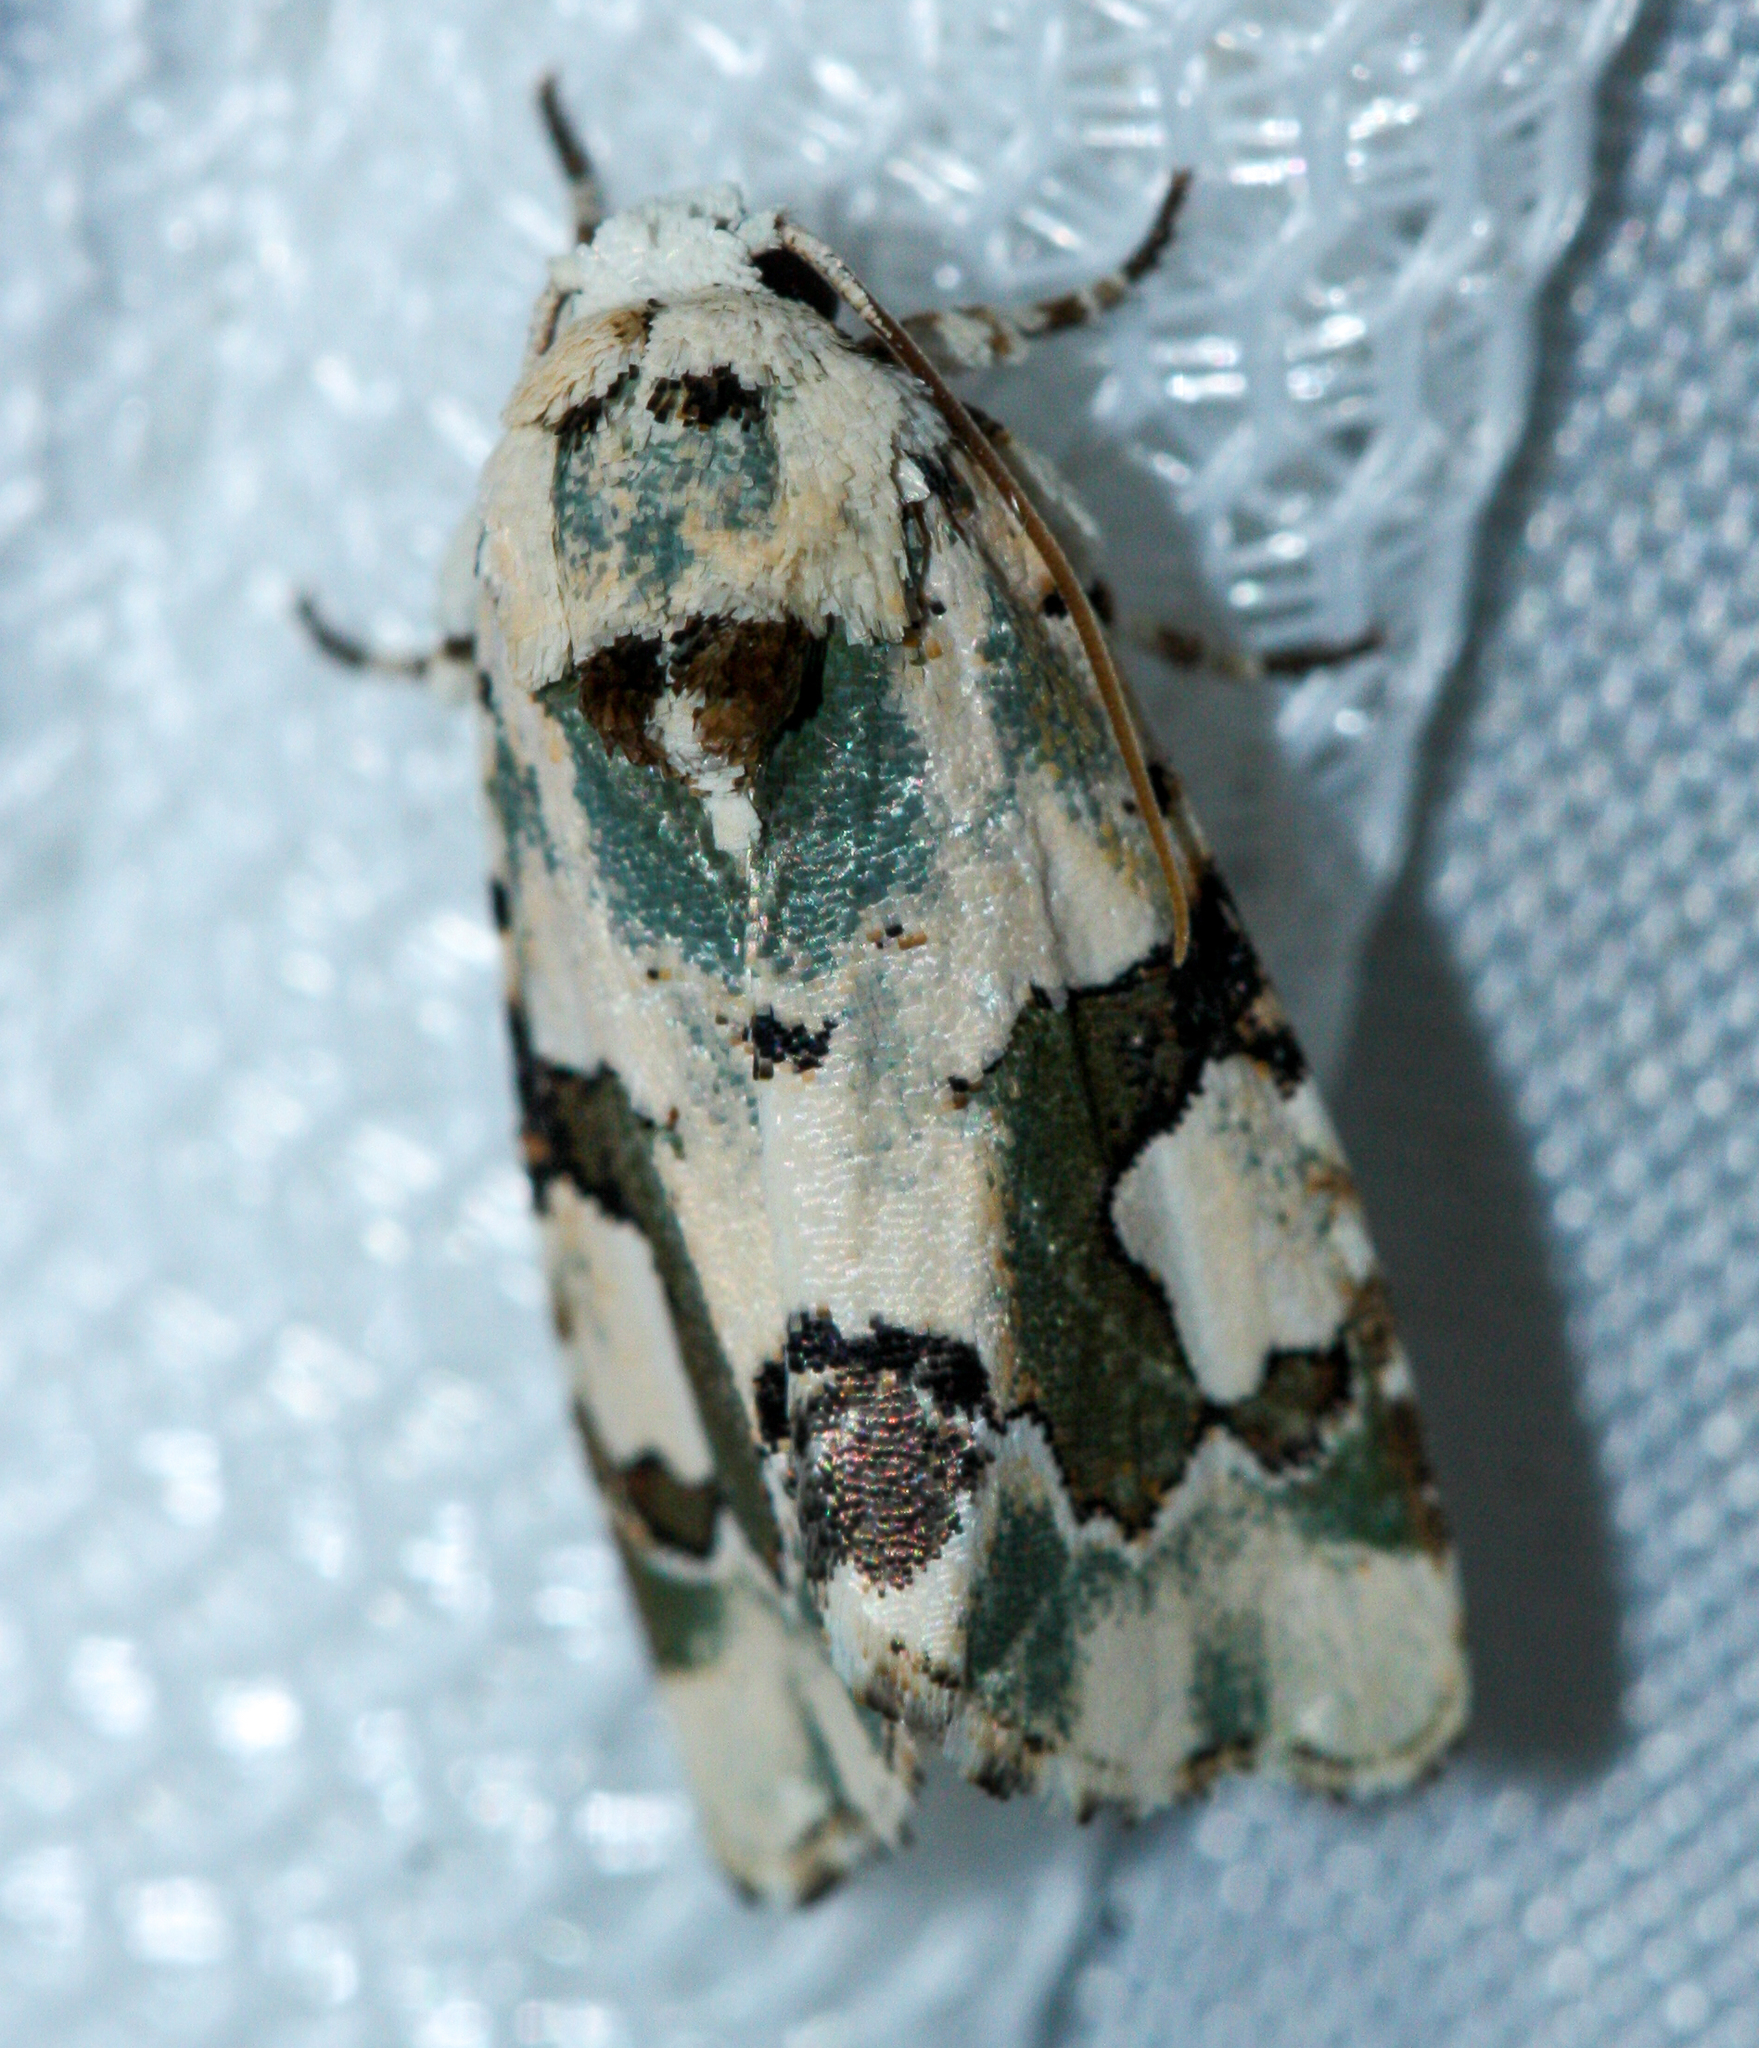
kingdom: Animalia
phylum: Arthropoda
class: Insecta
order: Lepidoptera
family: Noctuidae
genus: Emarginea
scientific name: Emarginea percara
